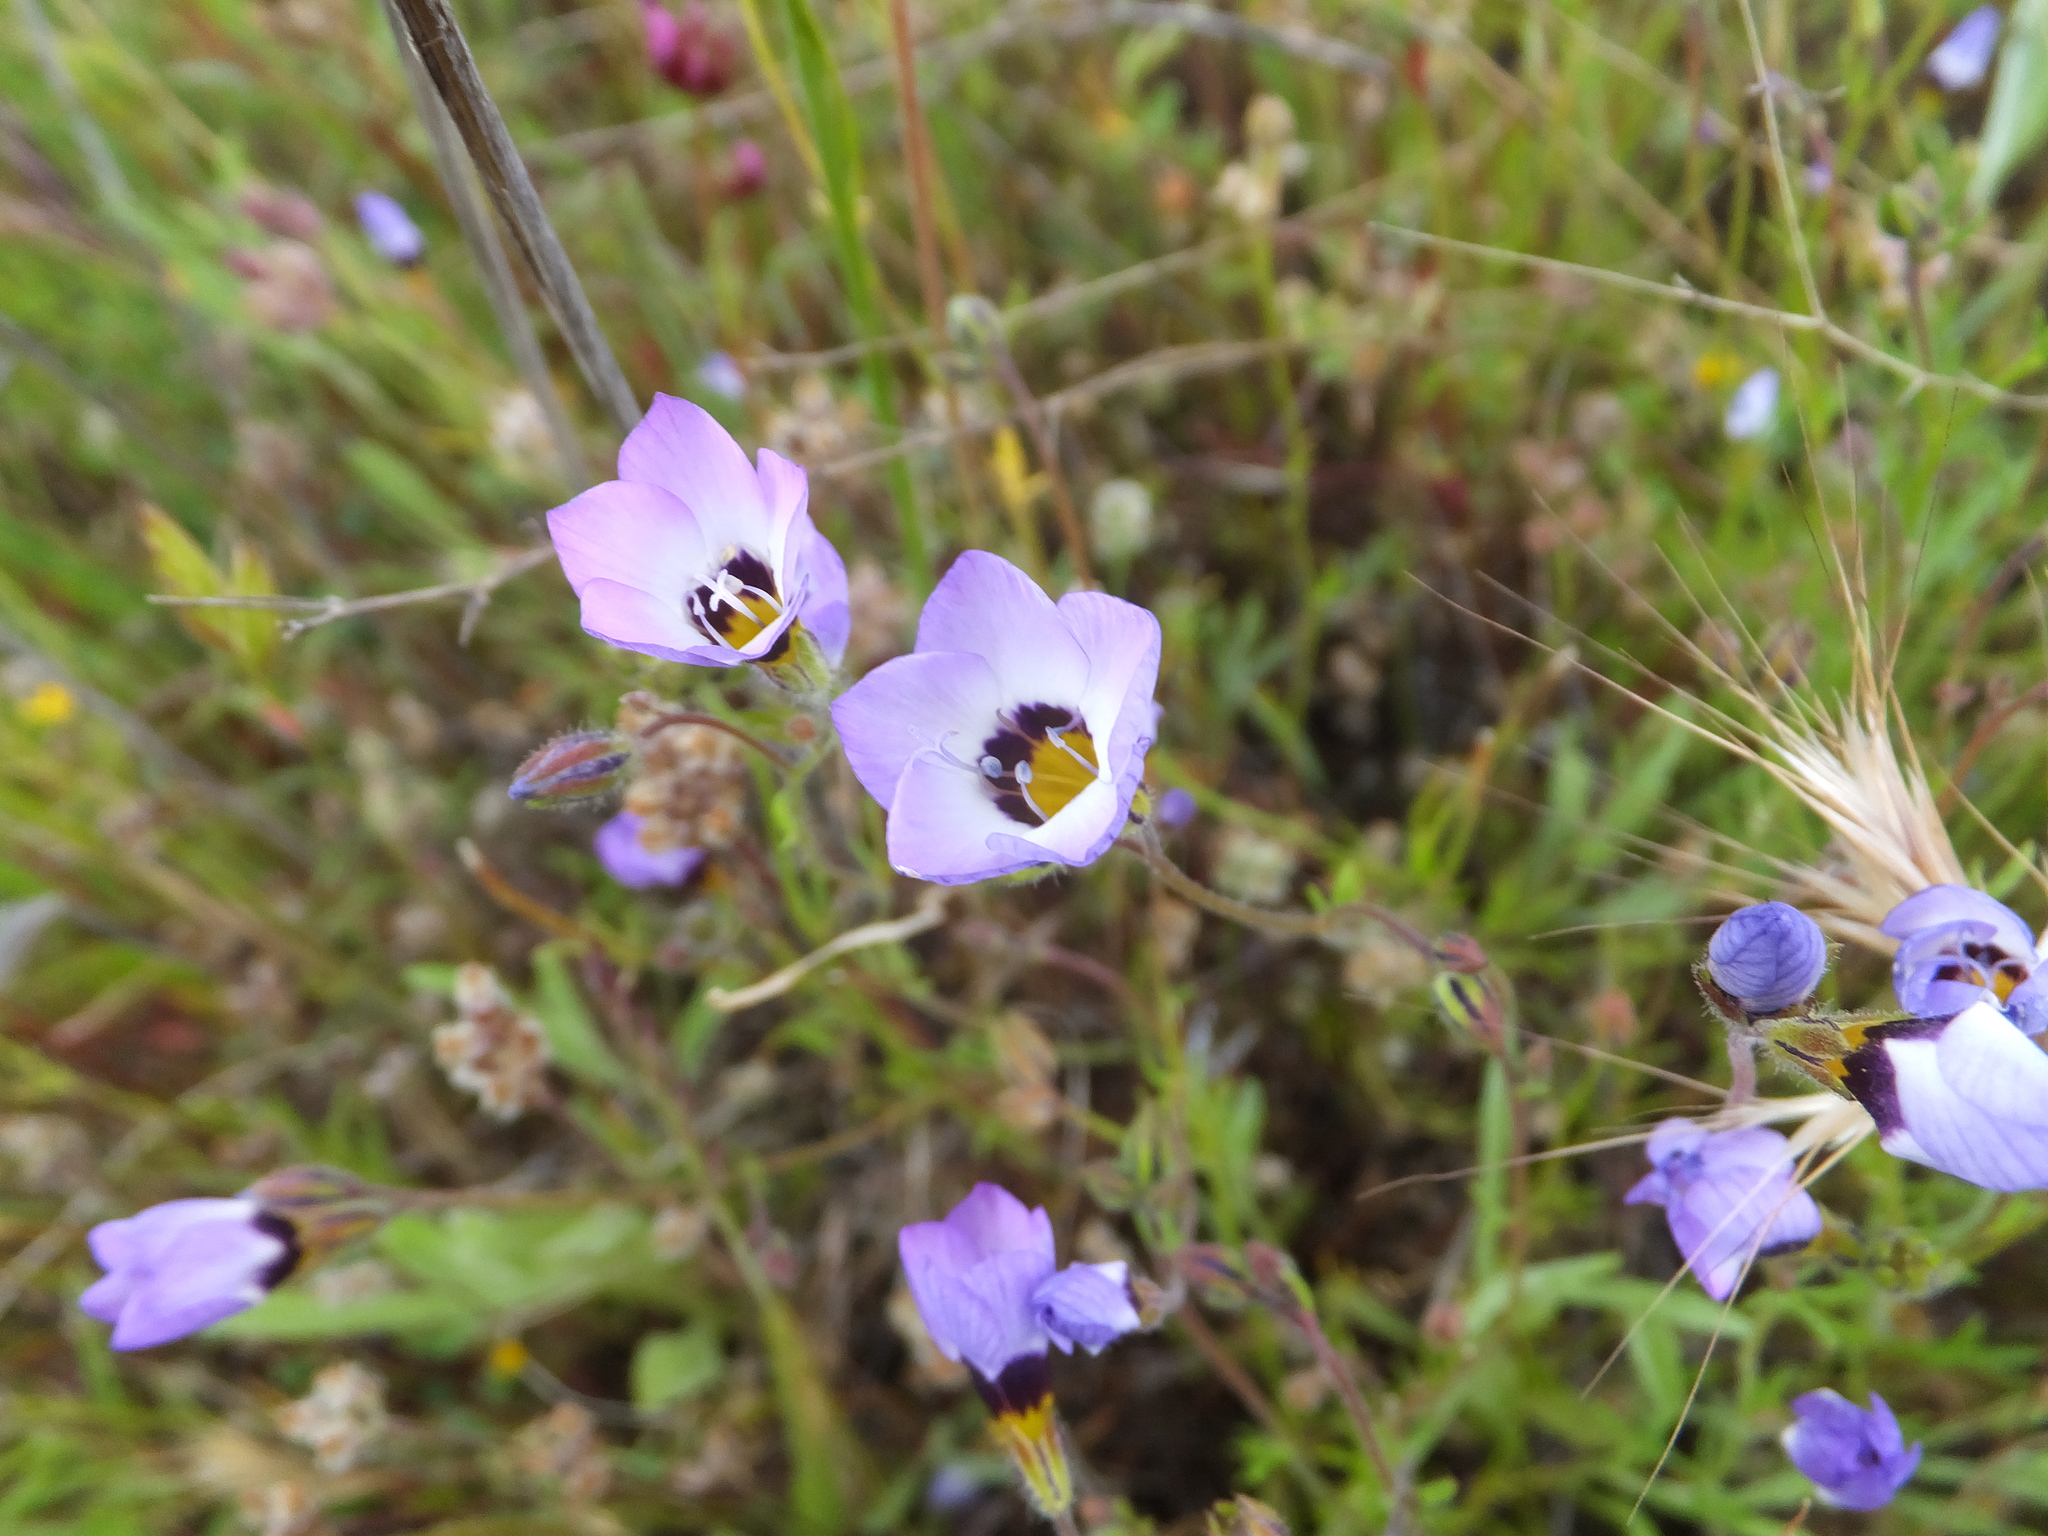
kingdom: Plantae
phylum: Tracheophyta
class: Magnoliopsida
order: Ericales
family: Polemoniaceae
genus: Gilia
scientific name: Gilia tricolor
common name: Bird's-eyes
